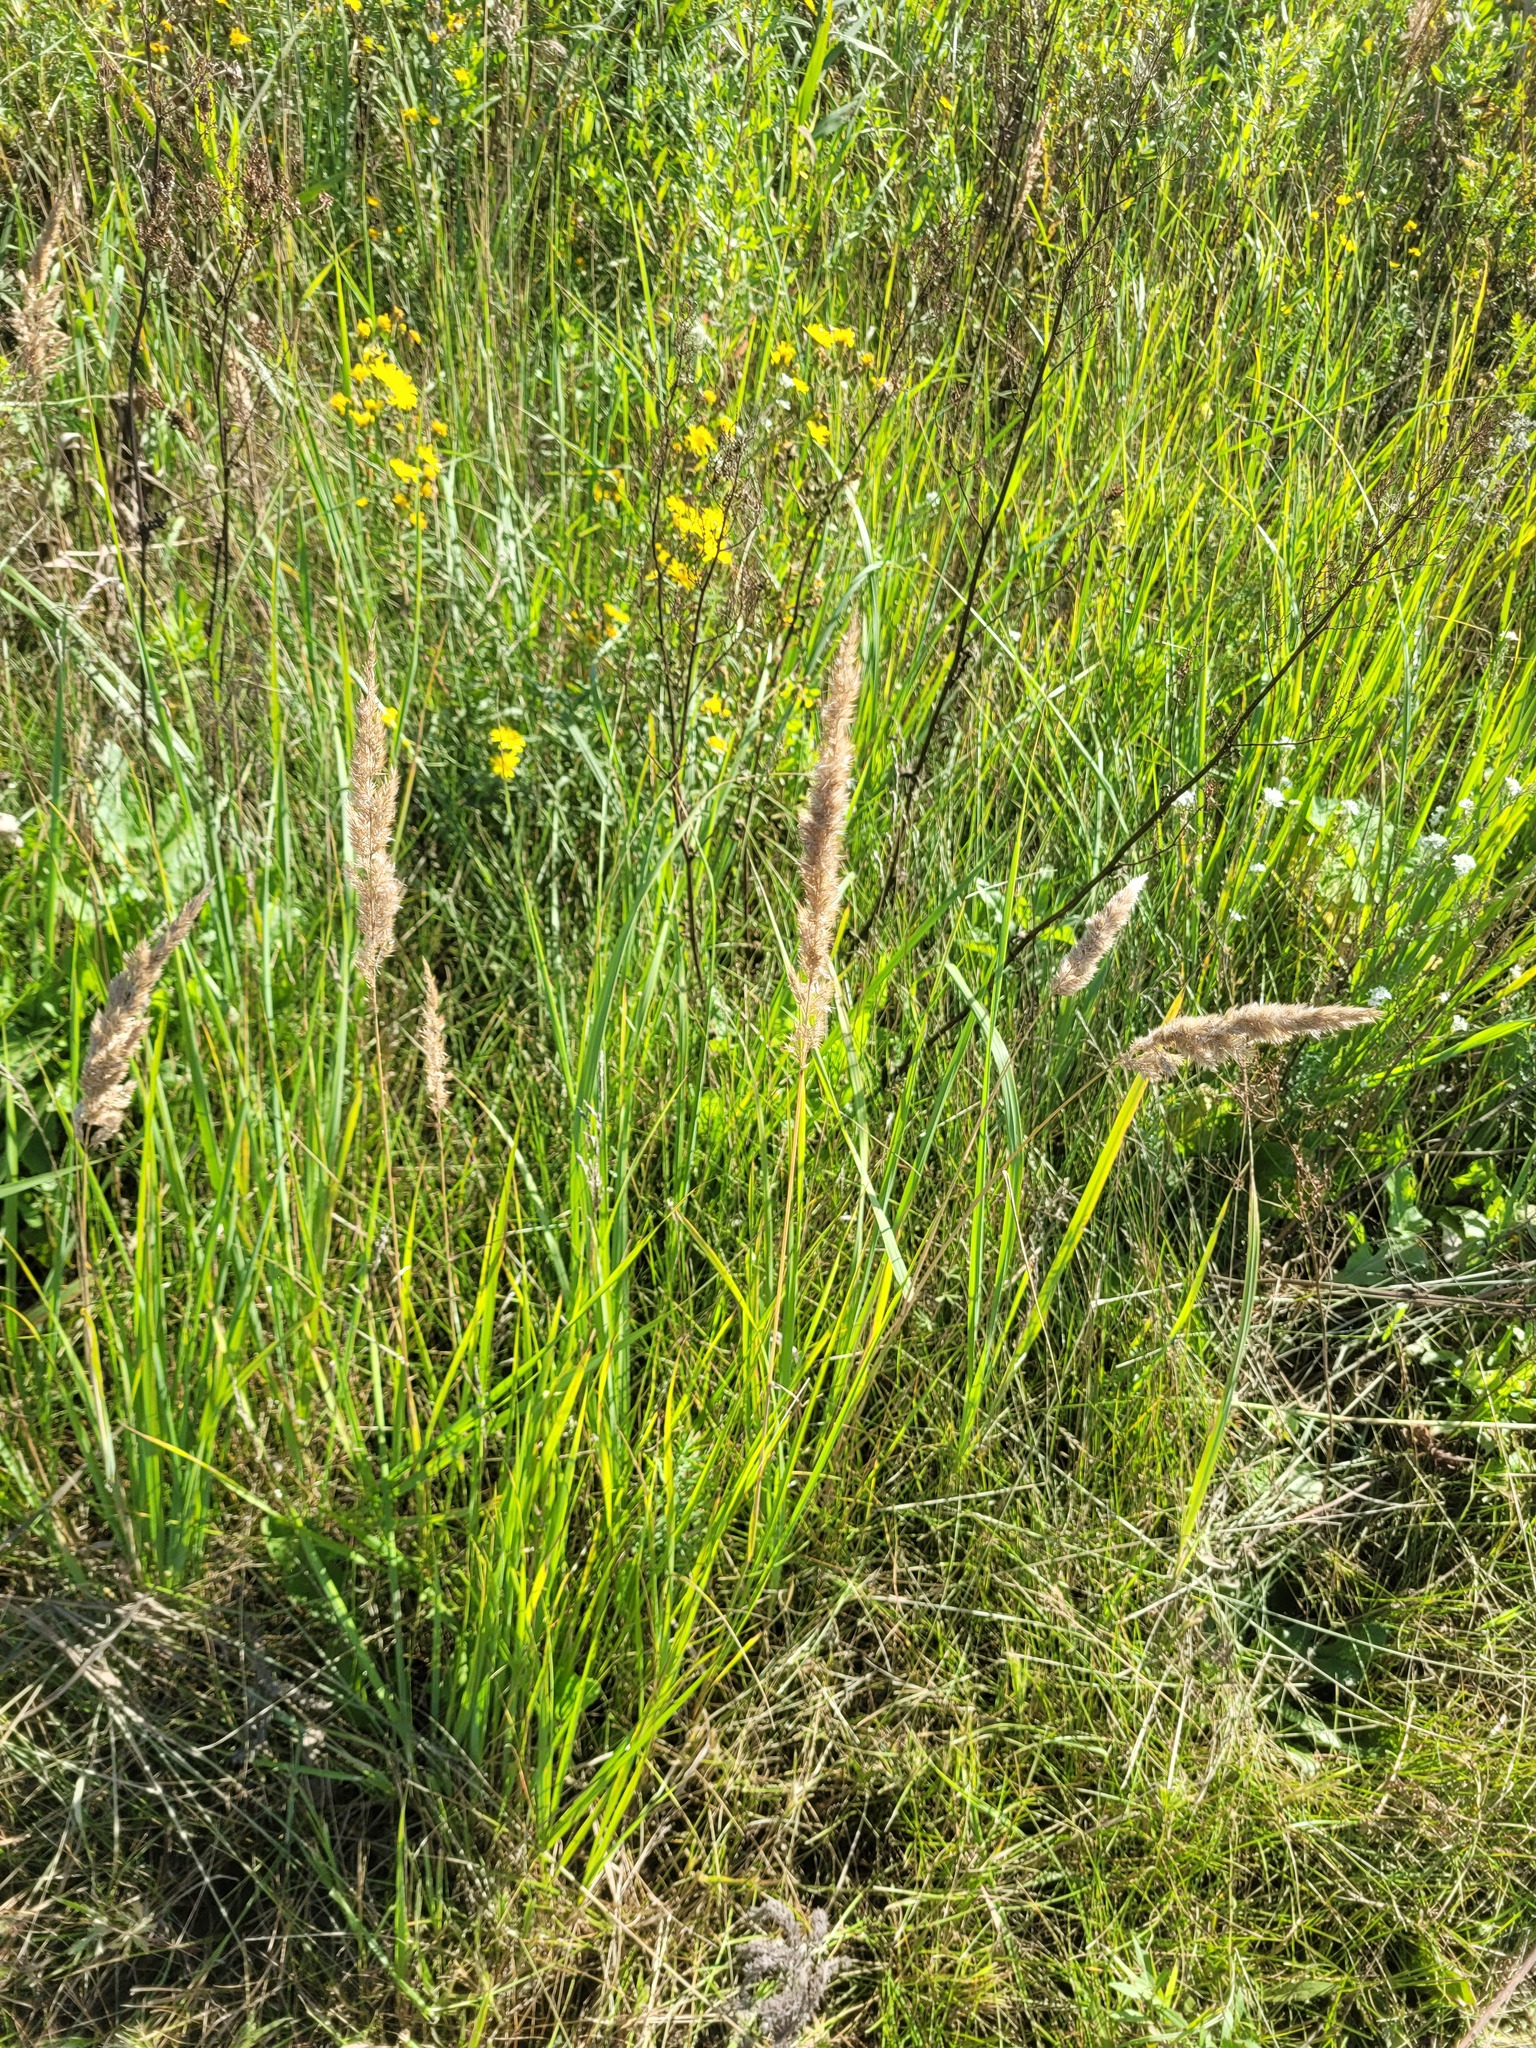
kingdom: Plantae
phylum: Tracheophyta
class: Liliopsida
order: Poales
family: Poaceae
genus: Calamagrostis
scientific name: Calamagrostis epigejos
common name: Wood small-reed
